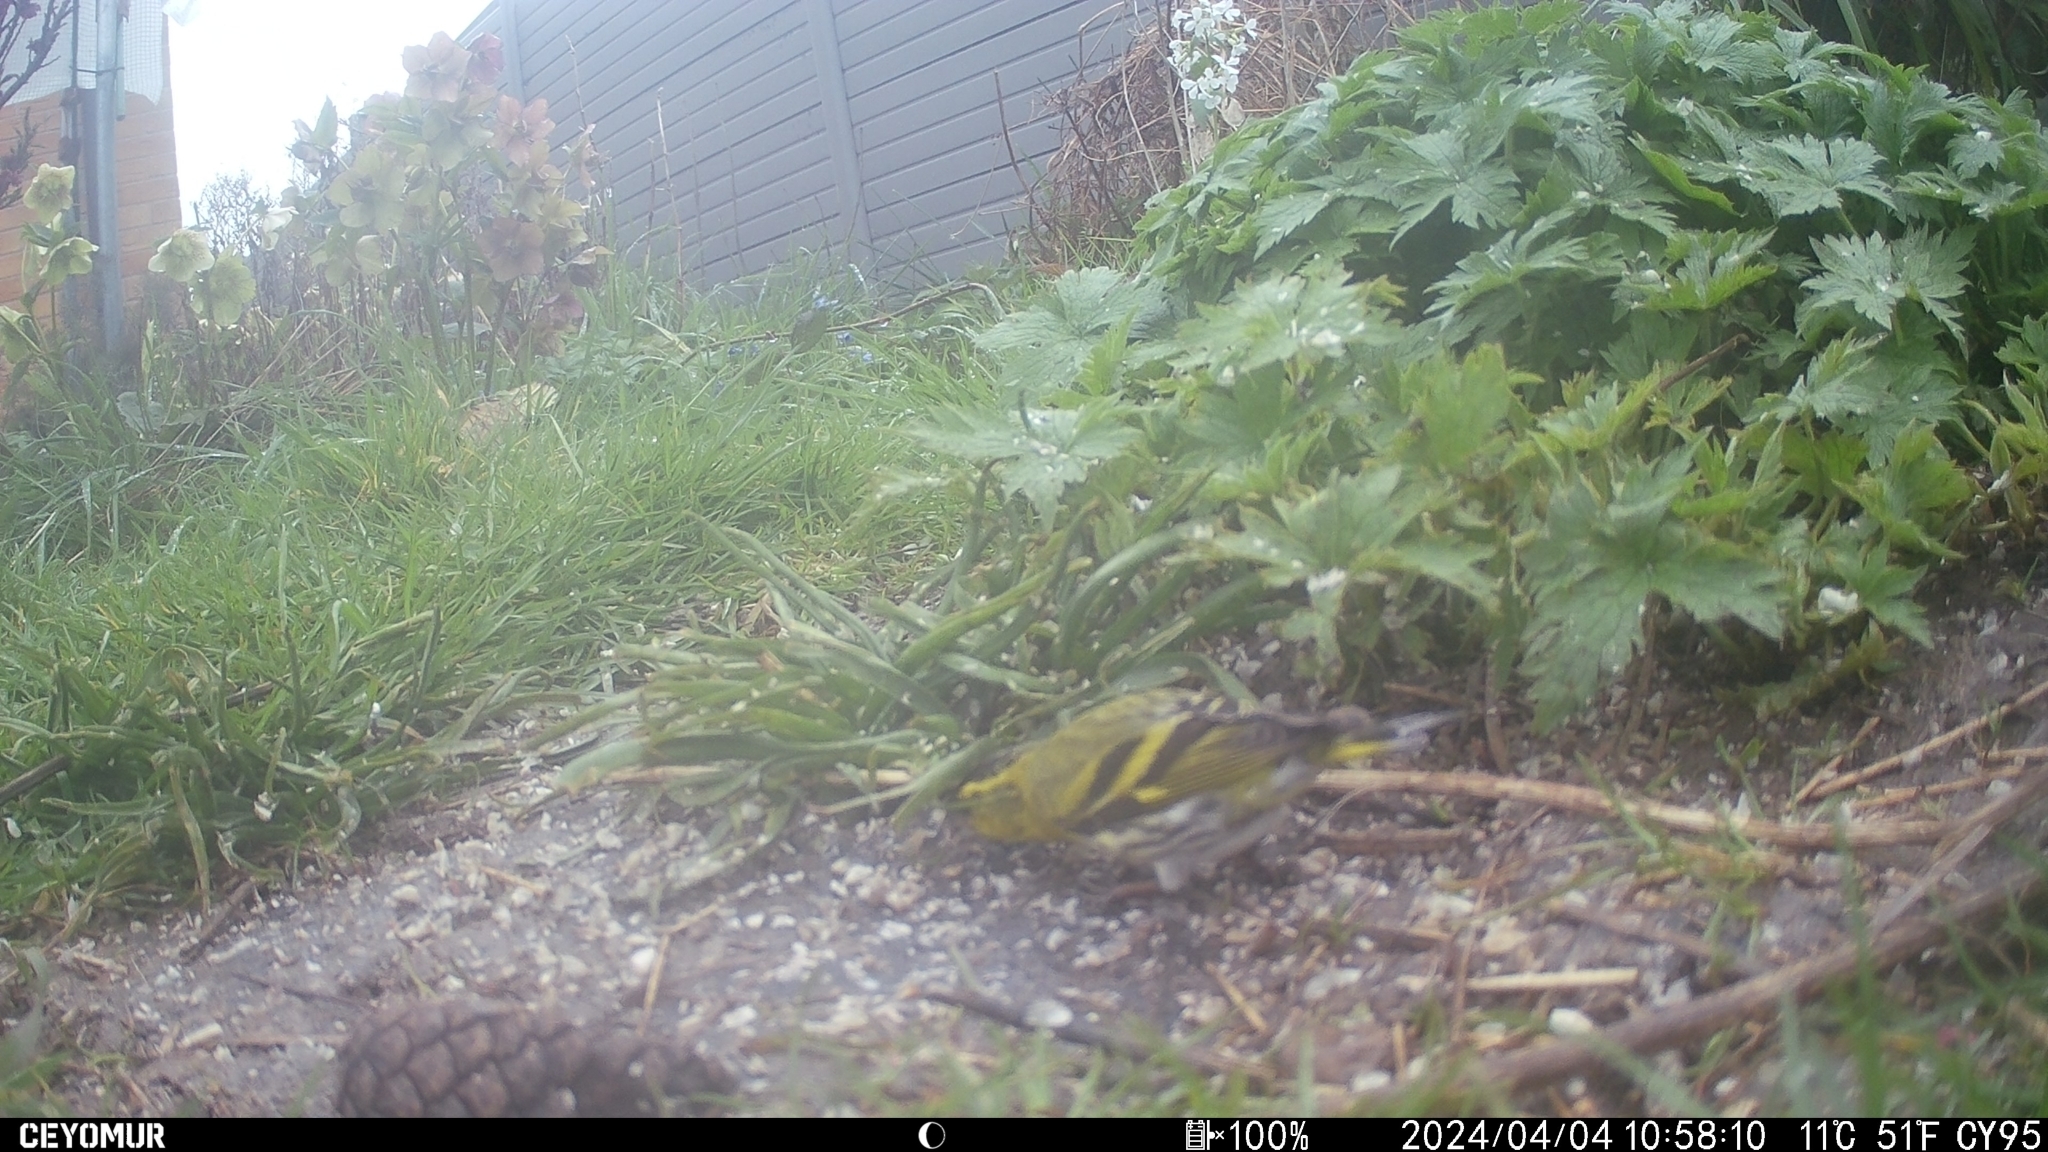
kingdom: Animalia
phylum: Chordata
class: Aves
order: Passeriformes
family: Fringillidae
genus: Spinus
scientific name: Spinus spinus
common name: Eurasian siskin
